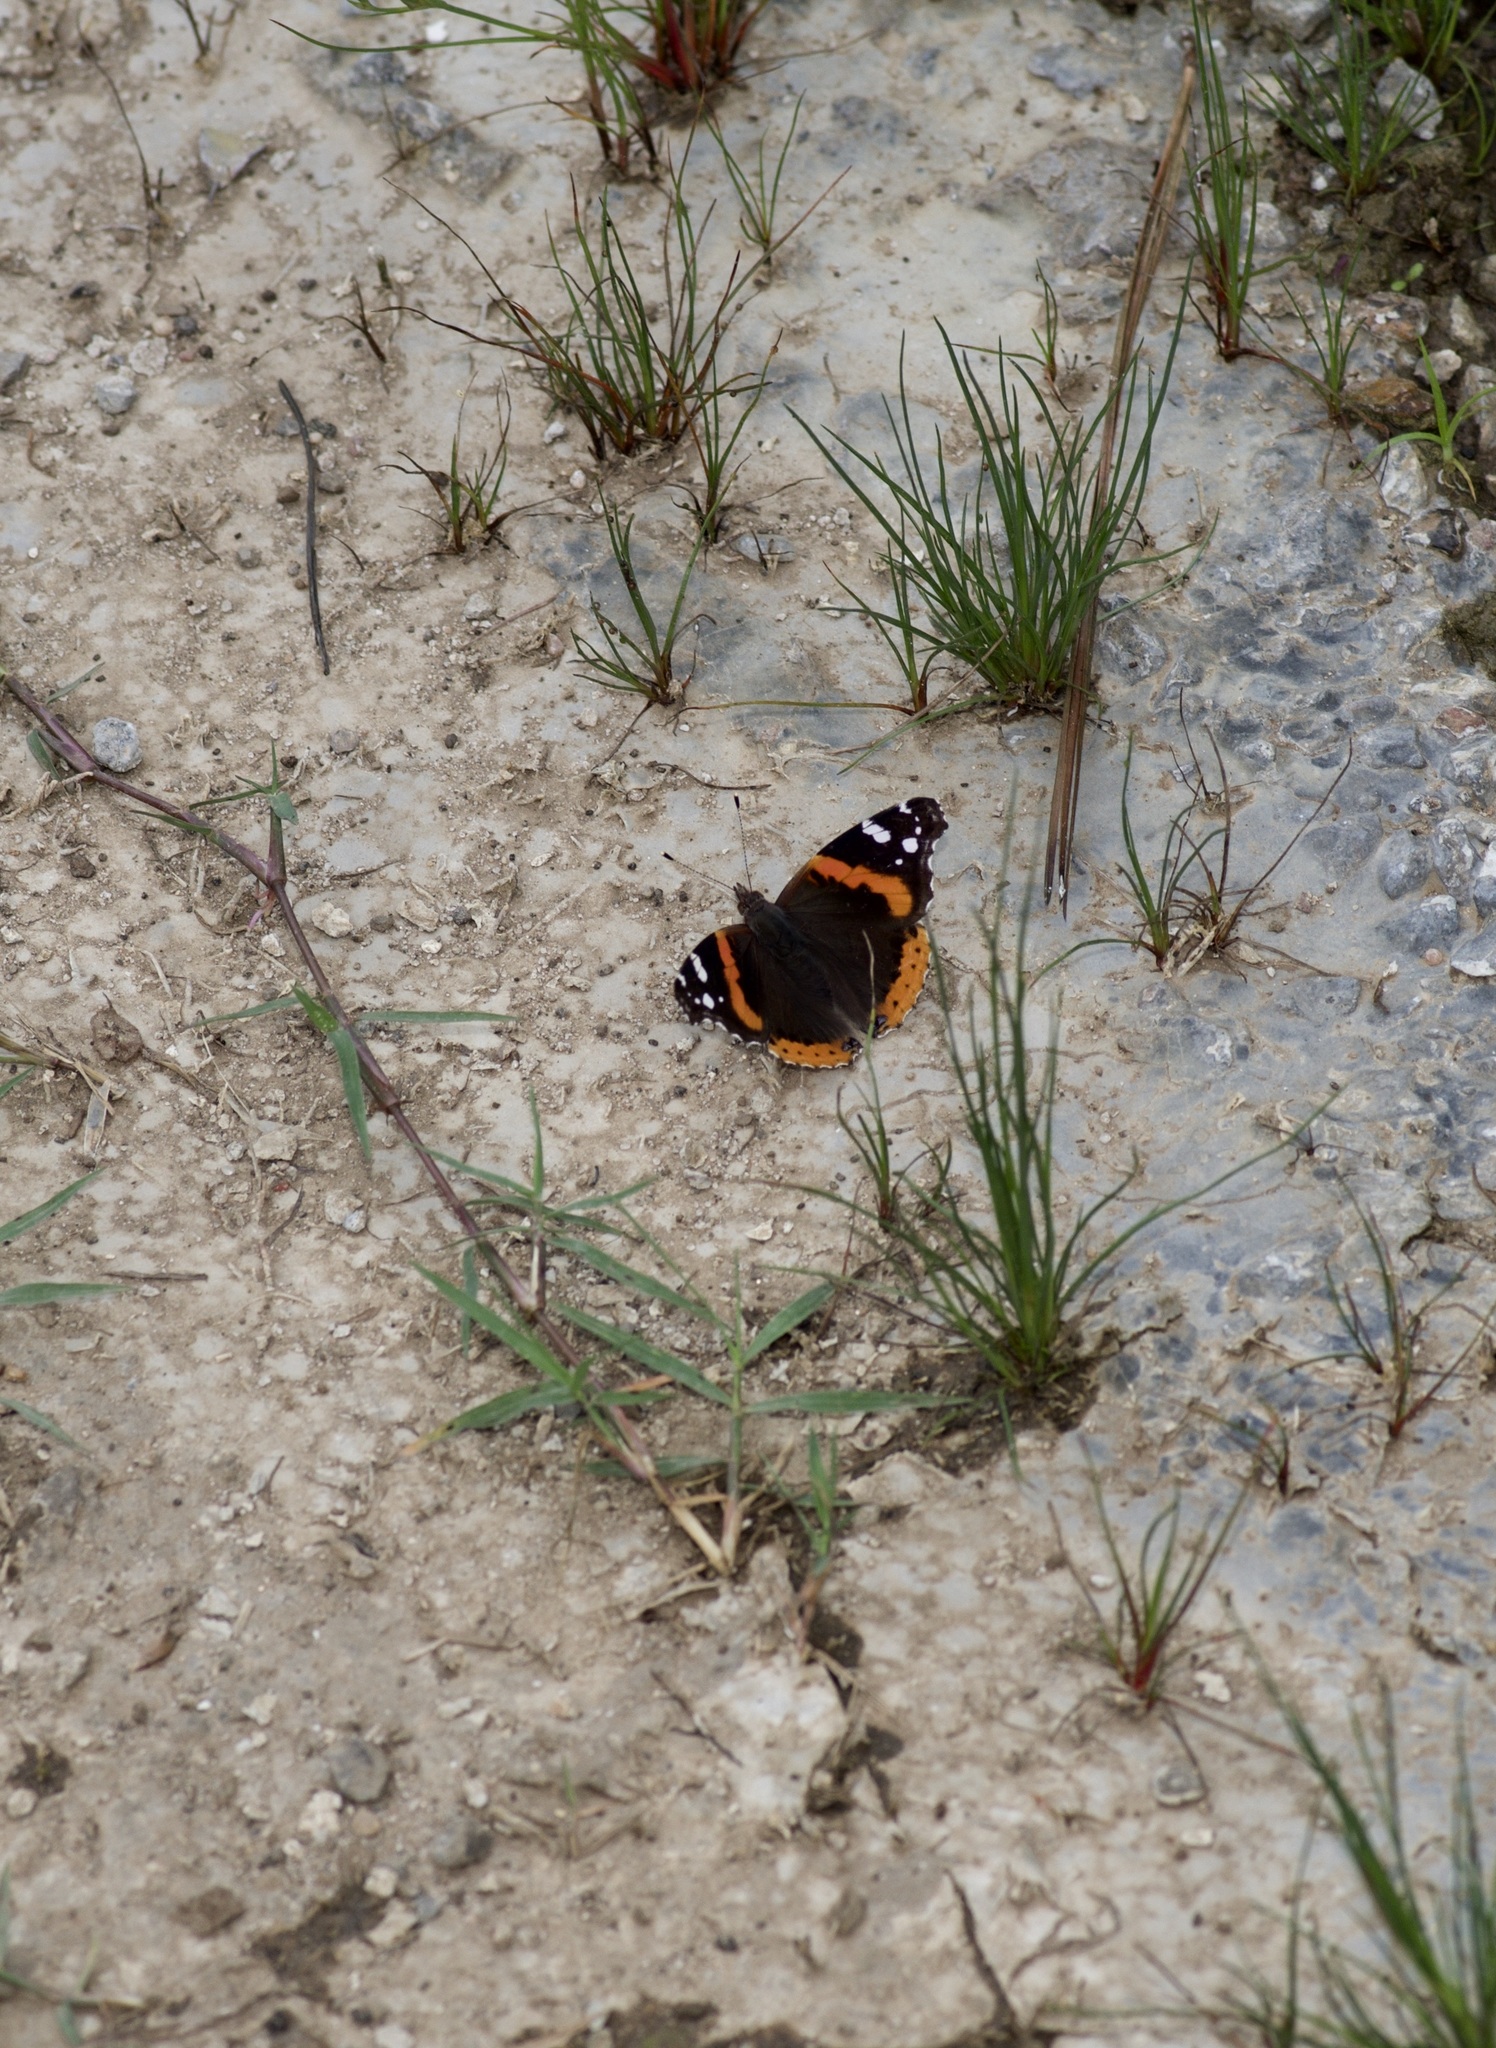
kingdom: Animalia
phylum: Arthropoda
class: Insecta
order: Lepidoptera
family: Nymphalidae
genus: Vanessa
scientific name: Vanessa atalanta
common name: Red admiral
